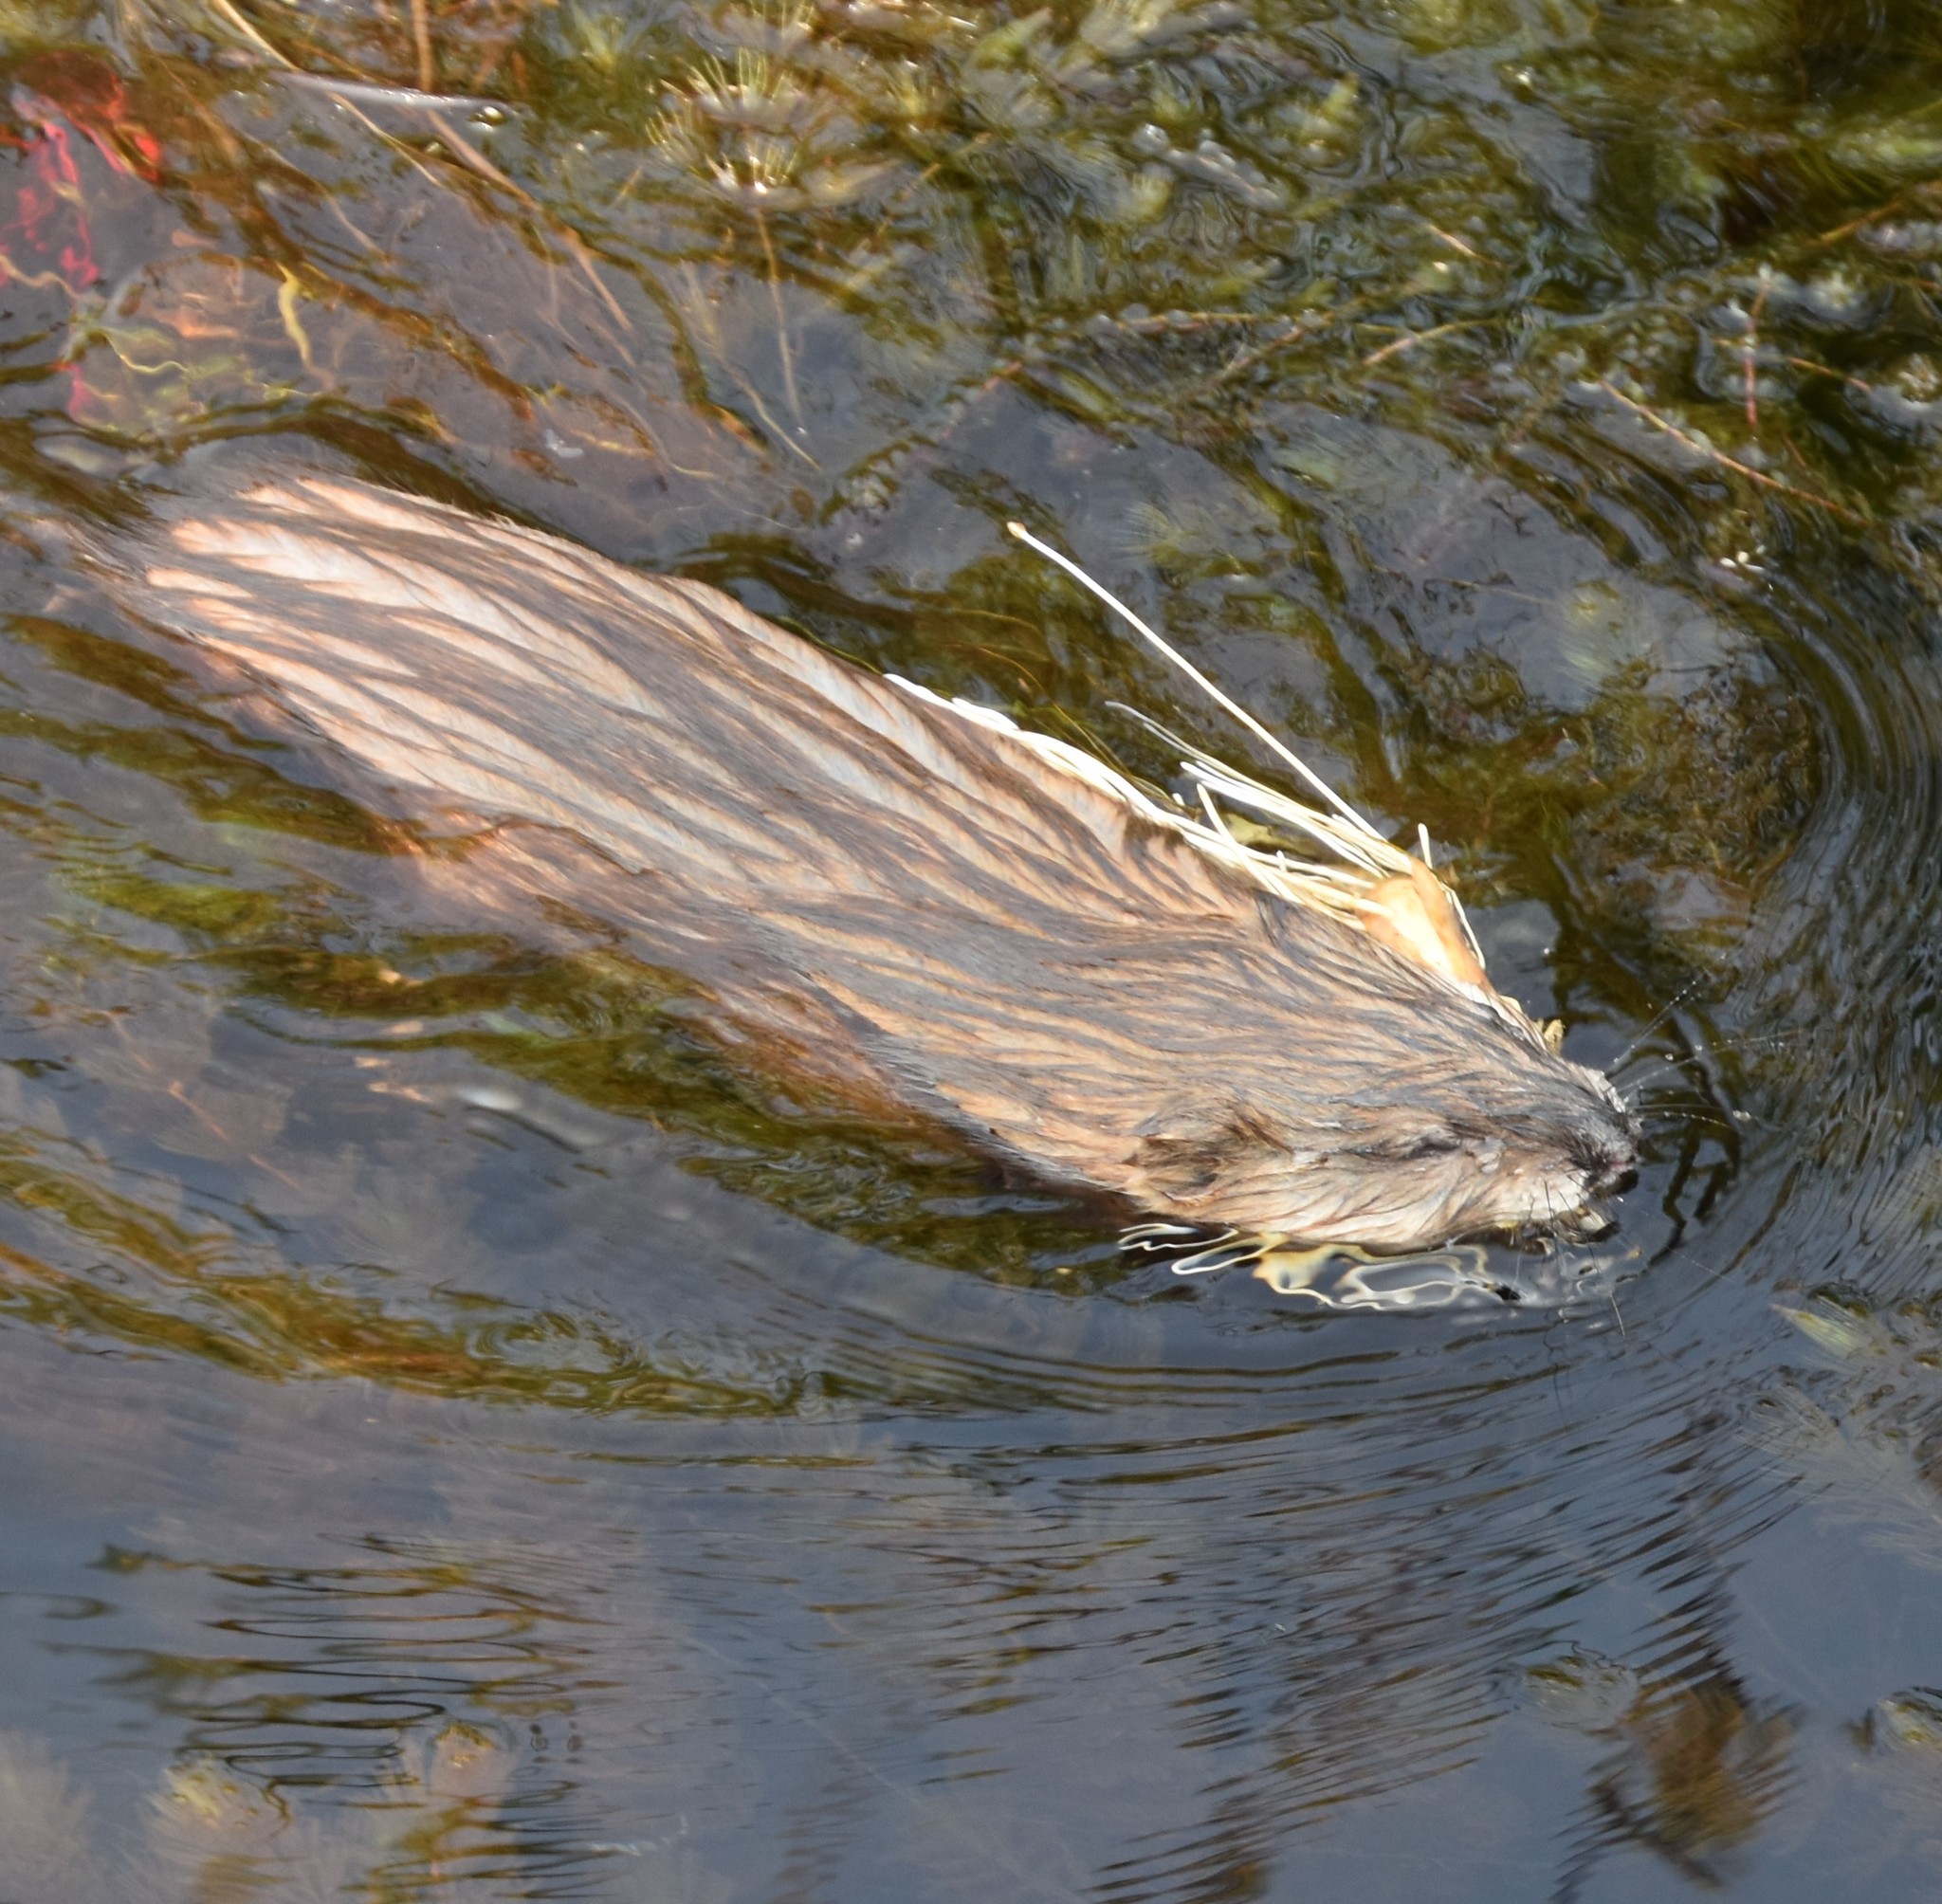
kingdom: Animalia
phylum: Chordata
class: Mammalia
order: Rodentia
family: Cricetidae
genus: Ondatra
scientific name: Ondatra zibethicus
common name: Muskrat
